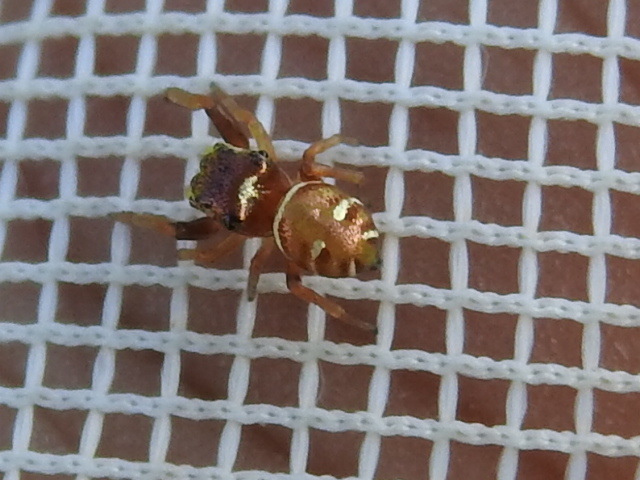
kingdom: Animalia
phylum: Arthropoda
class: Arachnida
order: Araneae
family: Salticidae
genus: Zygoballus
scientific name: Zygoballus sexpunctatus
